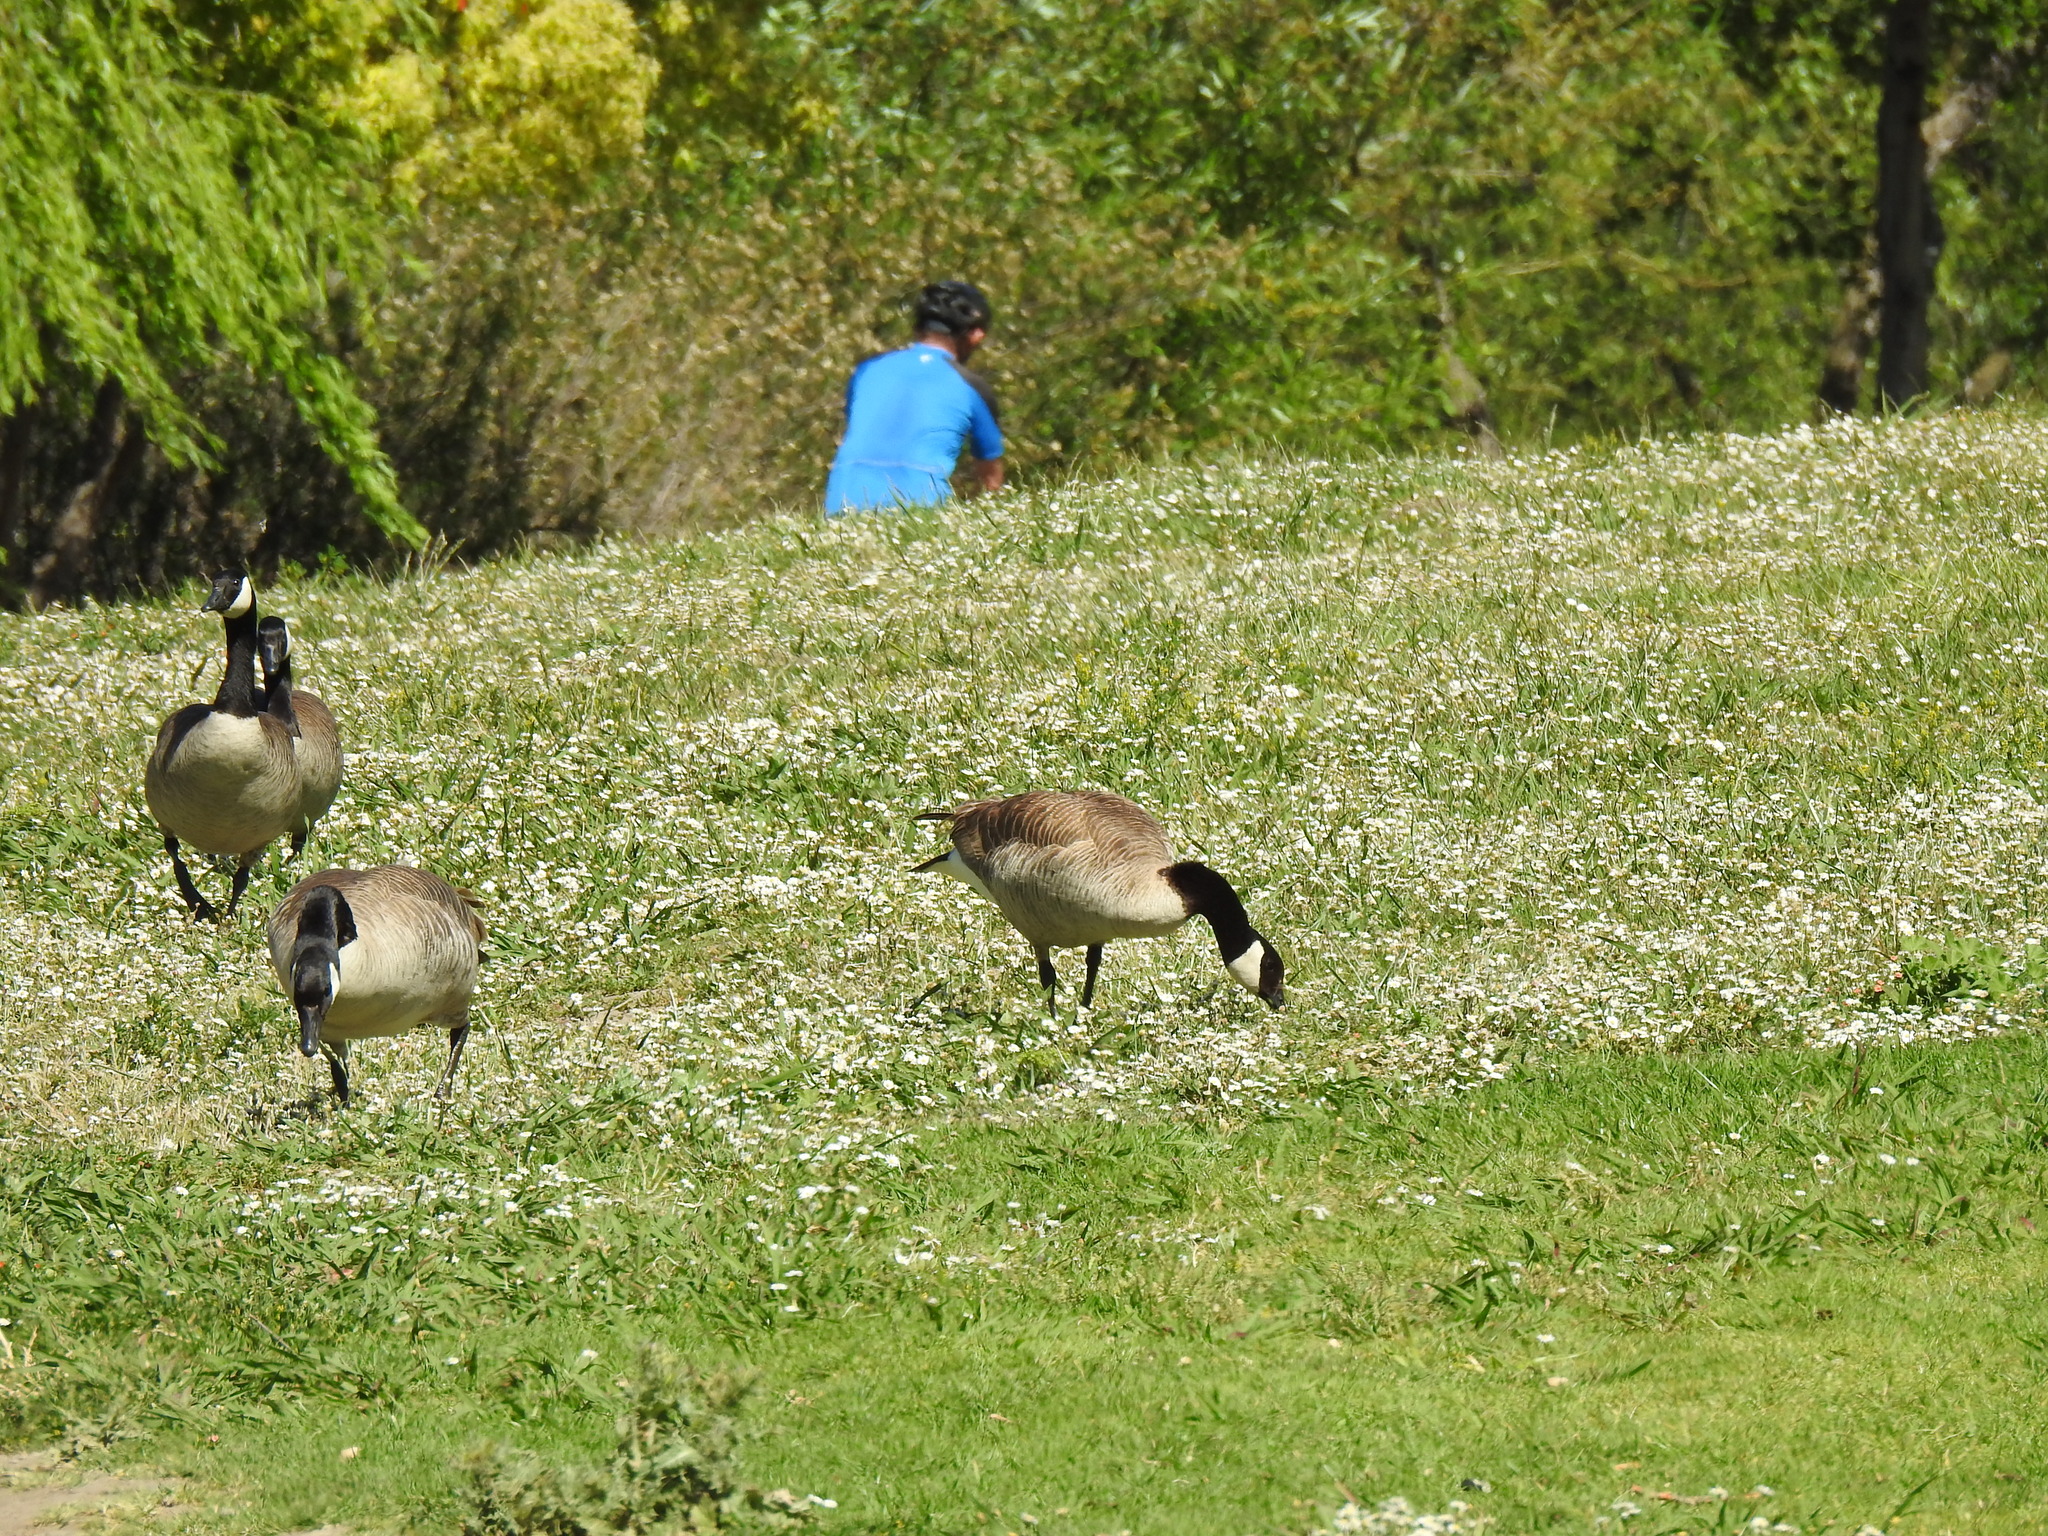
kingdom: Animalia
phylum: Chordata
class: Aves
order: Anseriformes
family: Anatidae
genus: Branta
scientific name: Branta canadensis
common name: Canada goose
